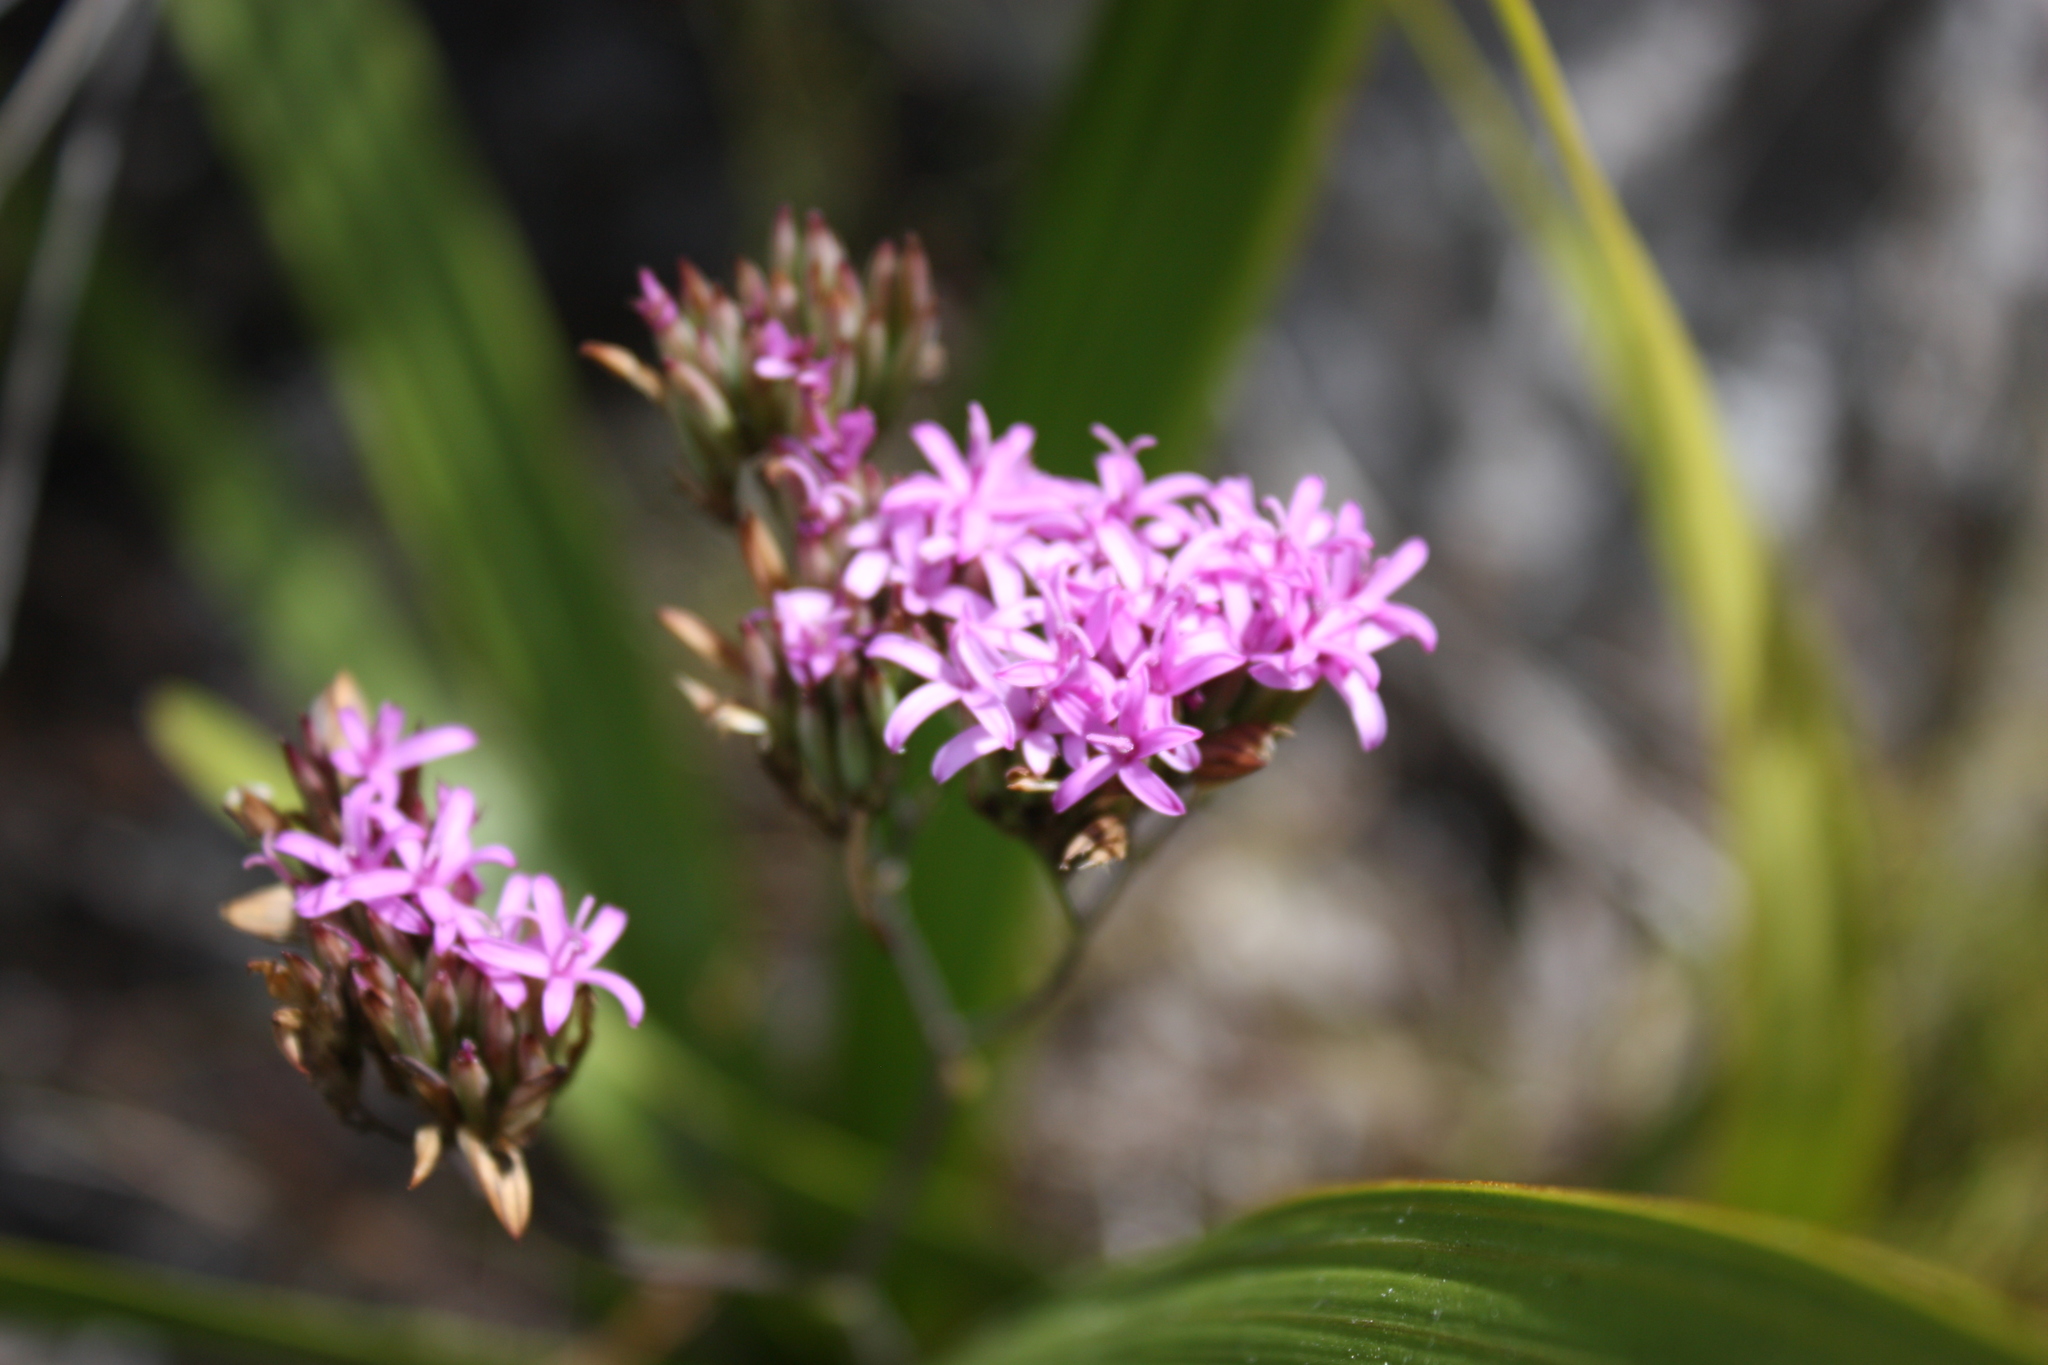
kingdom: Plantae
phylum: Tracheophyta
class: Magnoliopsida
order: Asterales
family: Asteraceae
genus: Corymbium
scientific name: Corymbium glabrum
